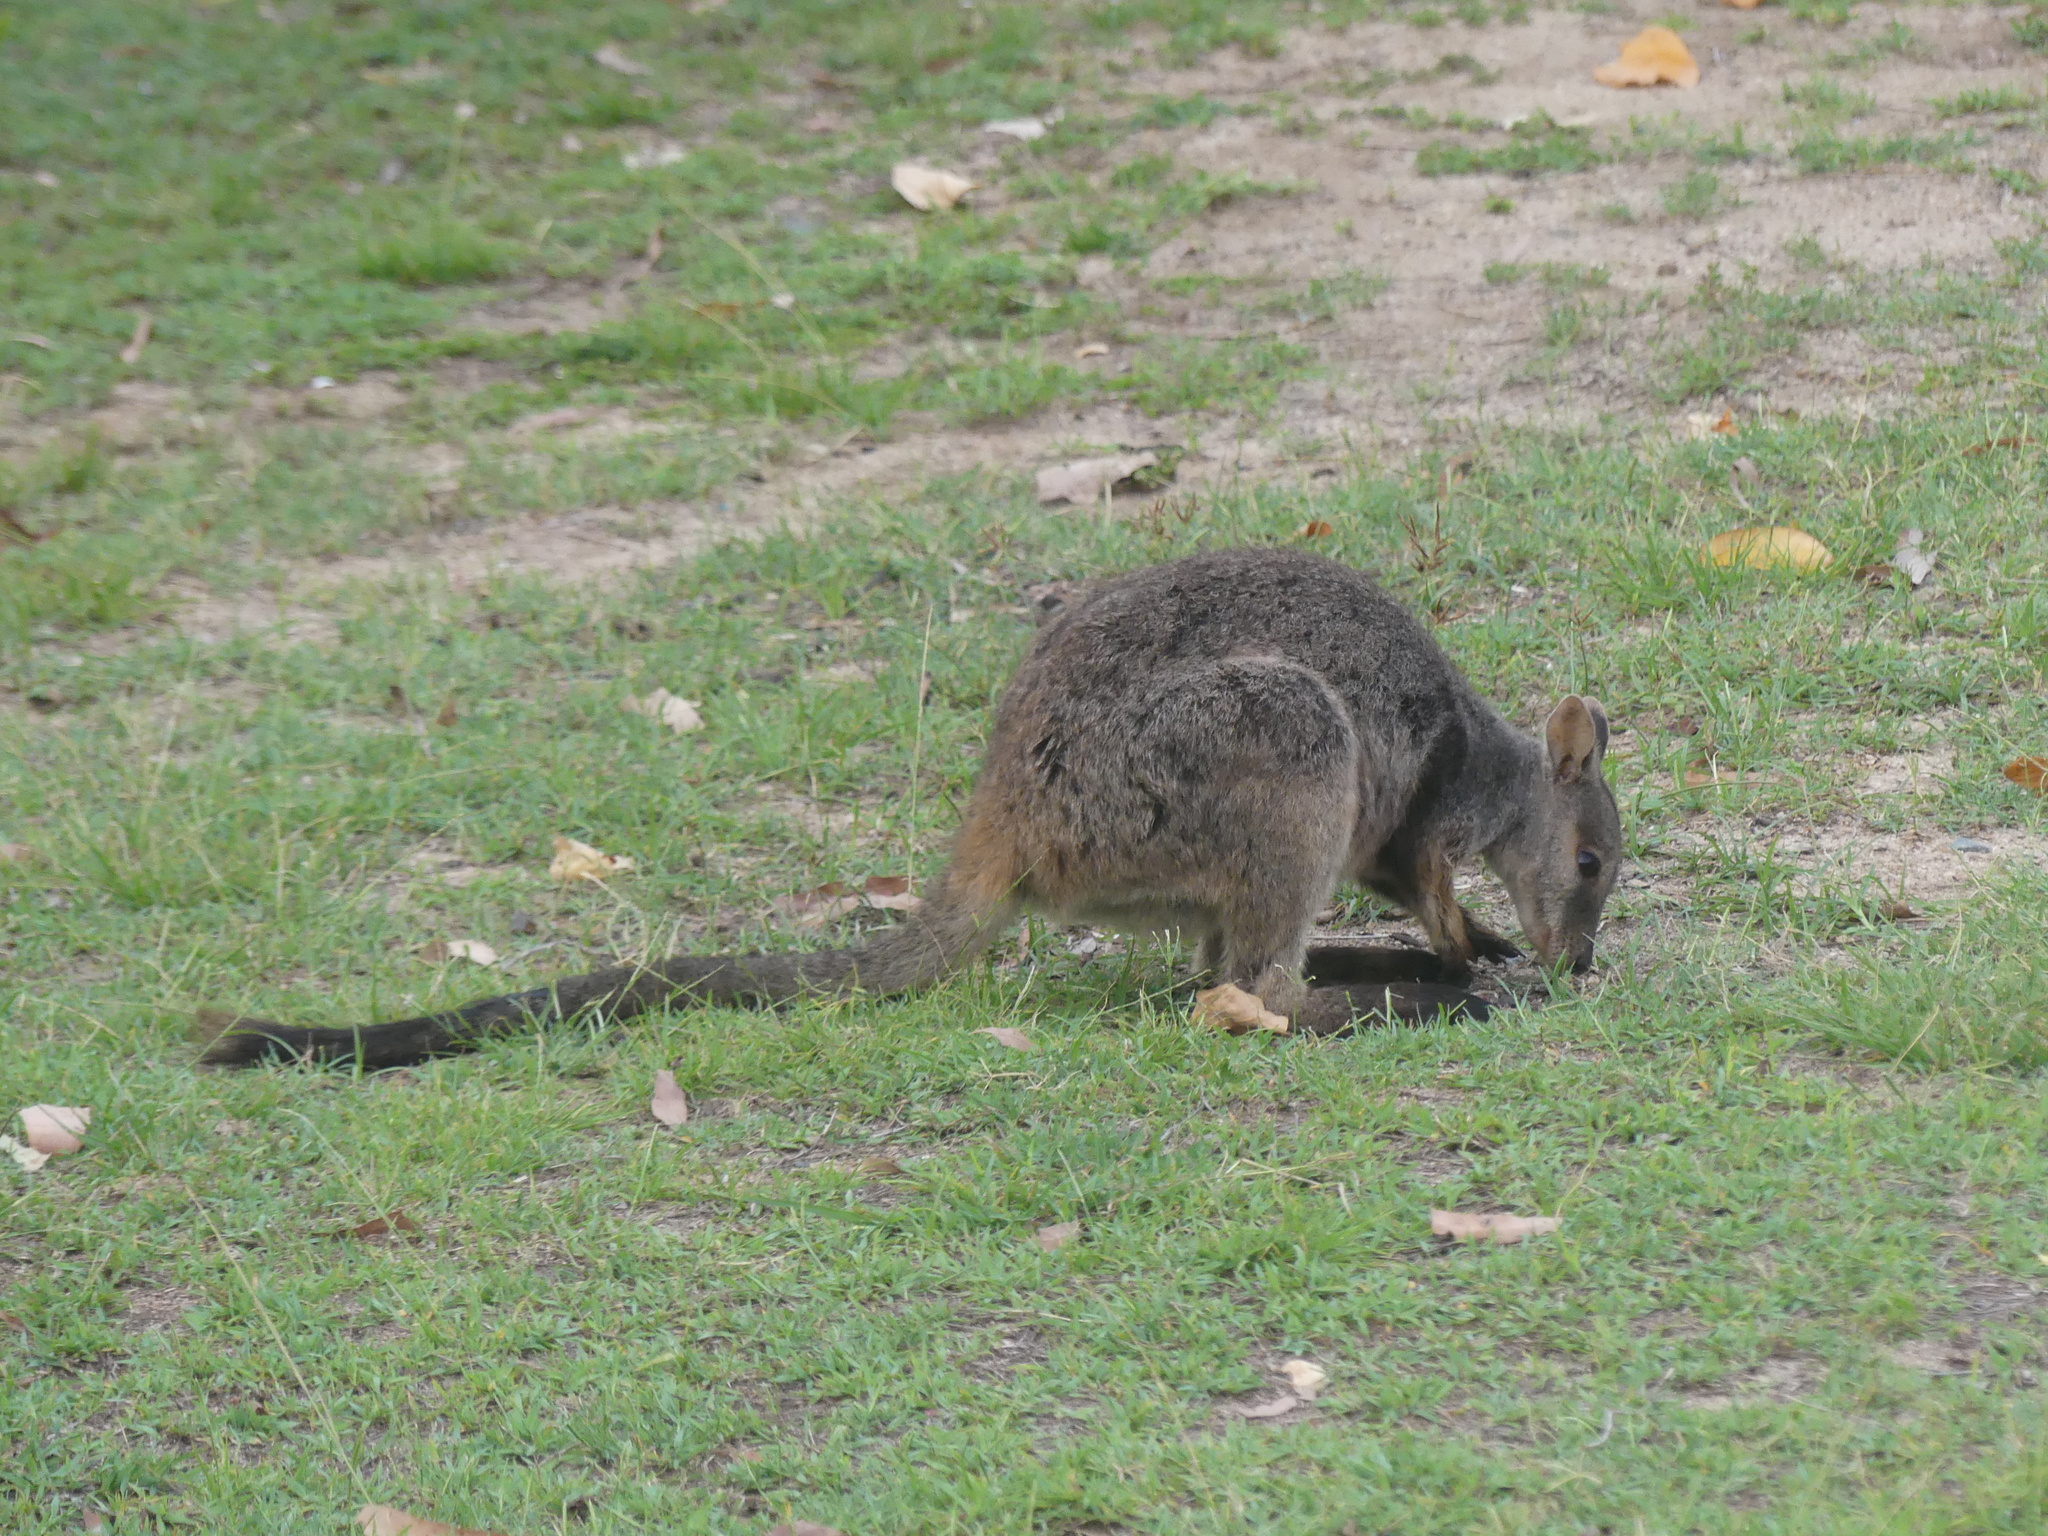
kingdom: Animalia
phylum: Chordata
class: Mammalia
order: Diprotodontia
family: Macropodidae
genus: Petrogale
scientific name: Petrogale inornata
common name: Unadorned rock wallaby
